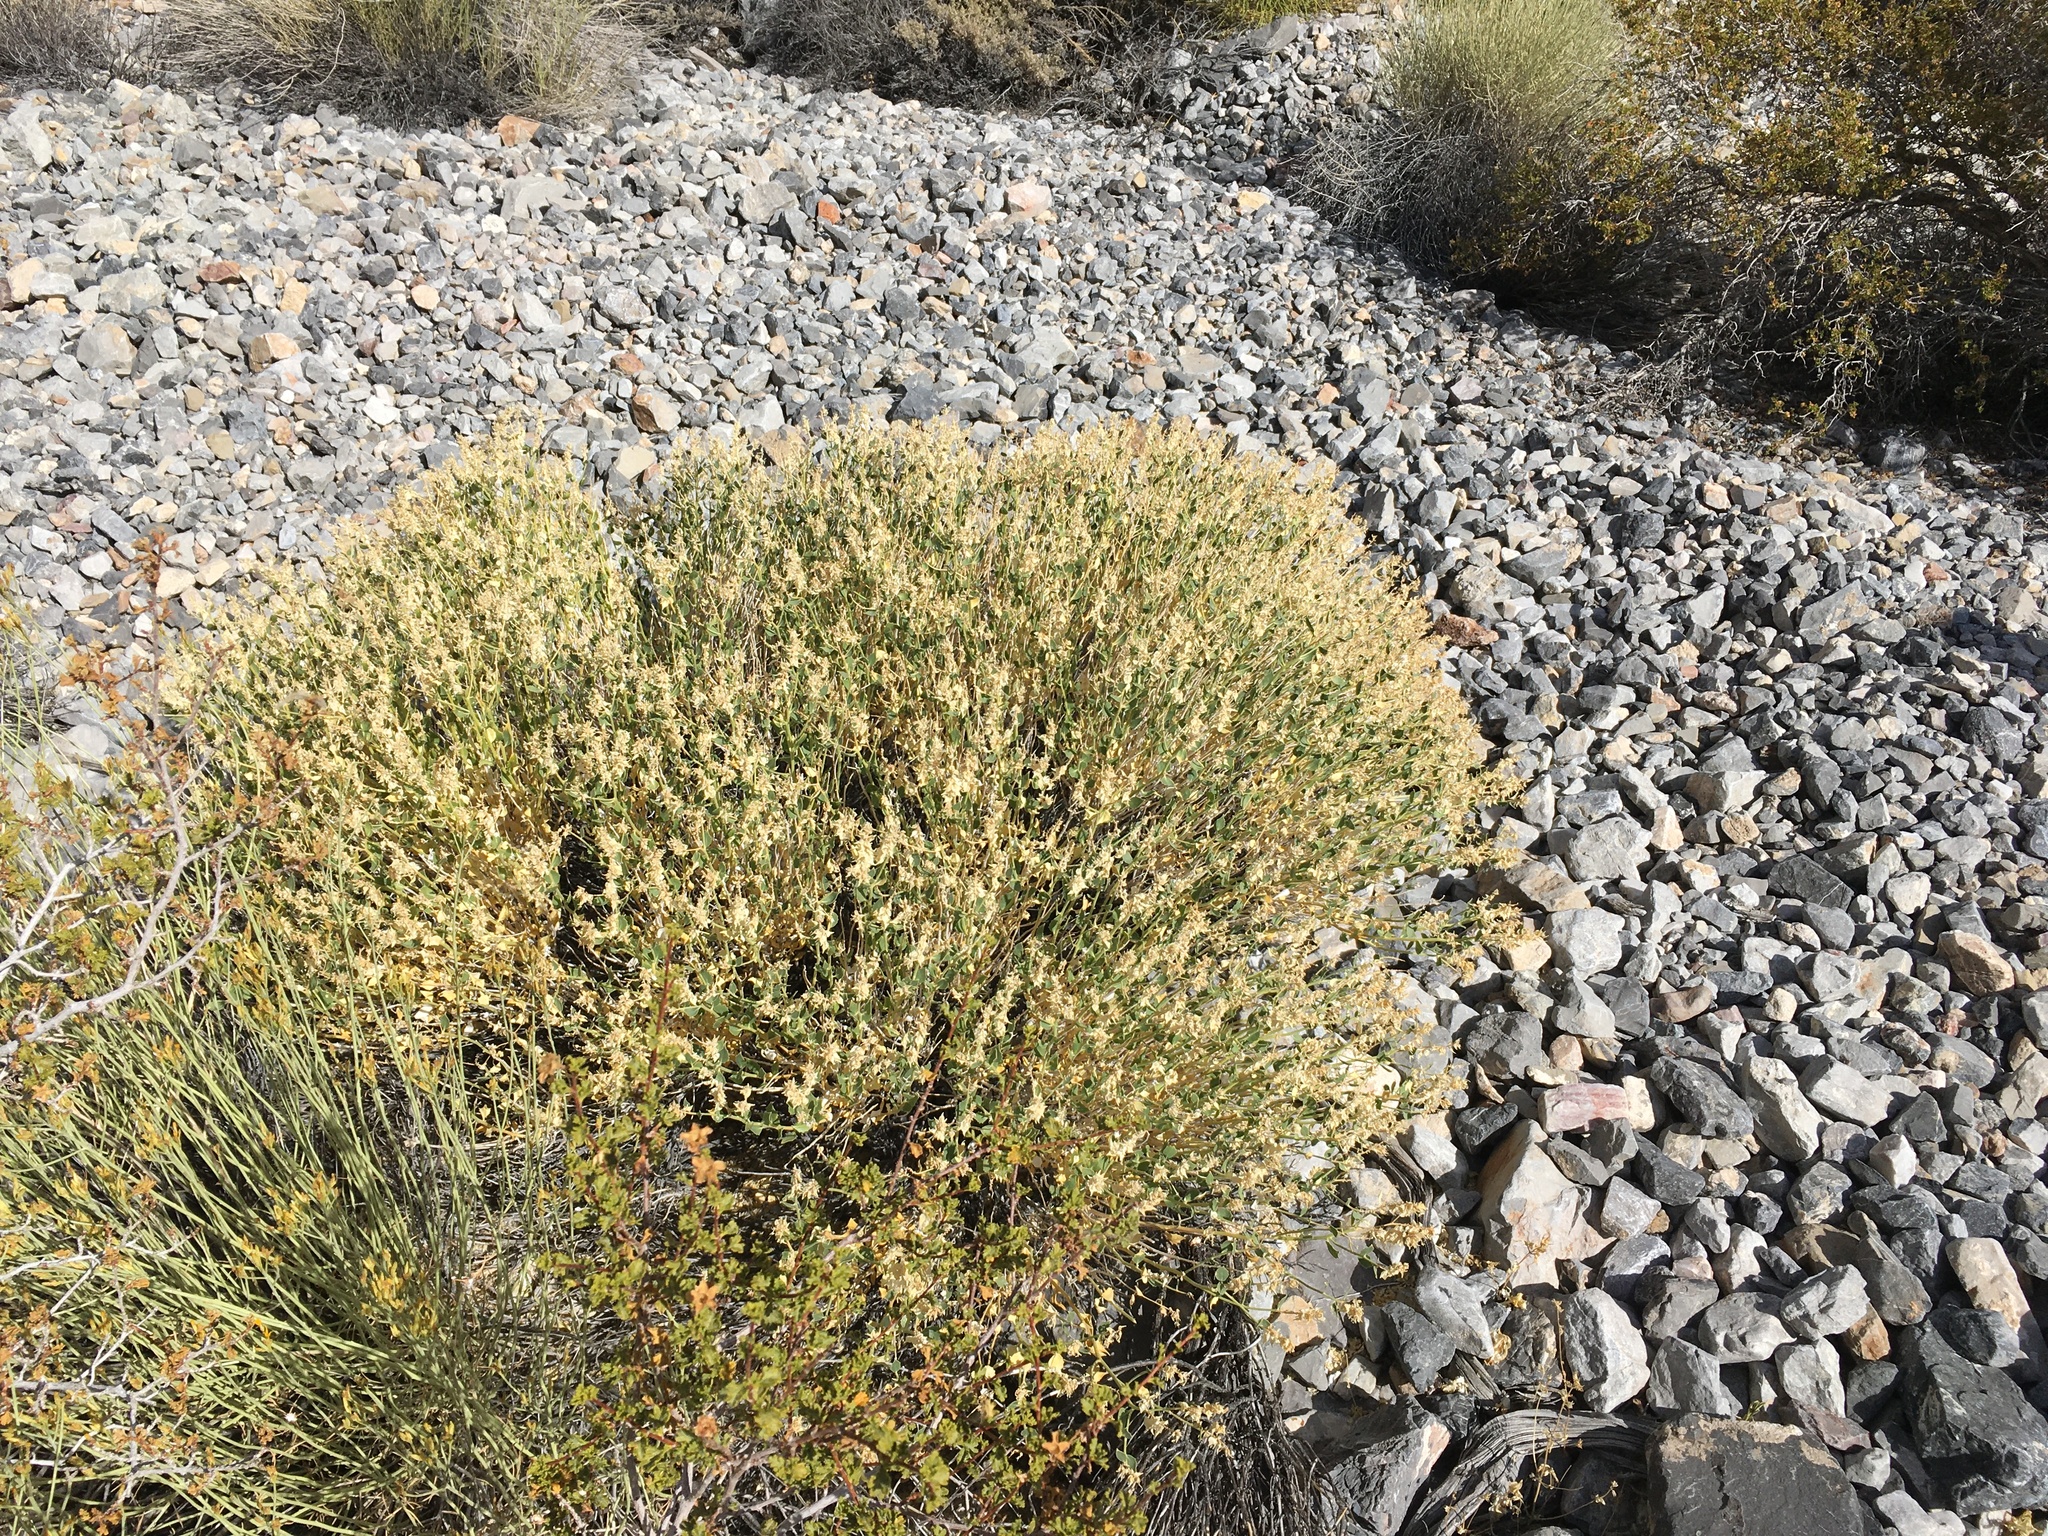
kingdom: Plantae
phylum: Tracheophyta
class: Magnoliopsida
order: Cornales
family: Loasaceae
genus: Petalonyx
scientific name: Petalonyx nitidus
